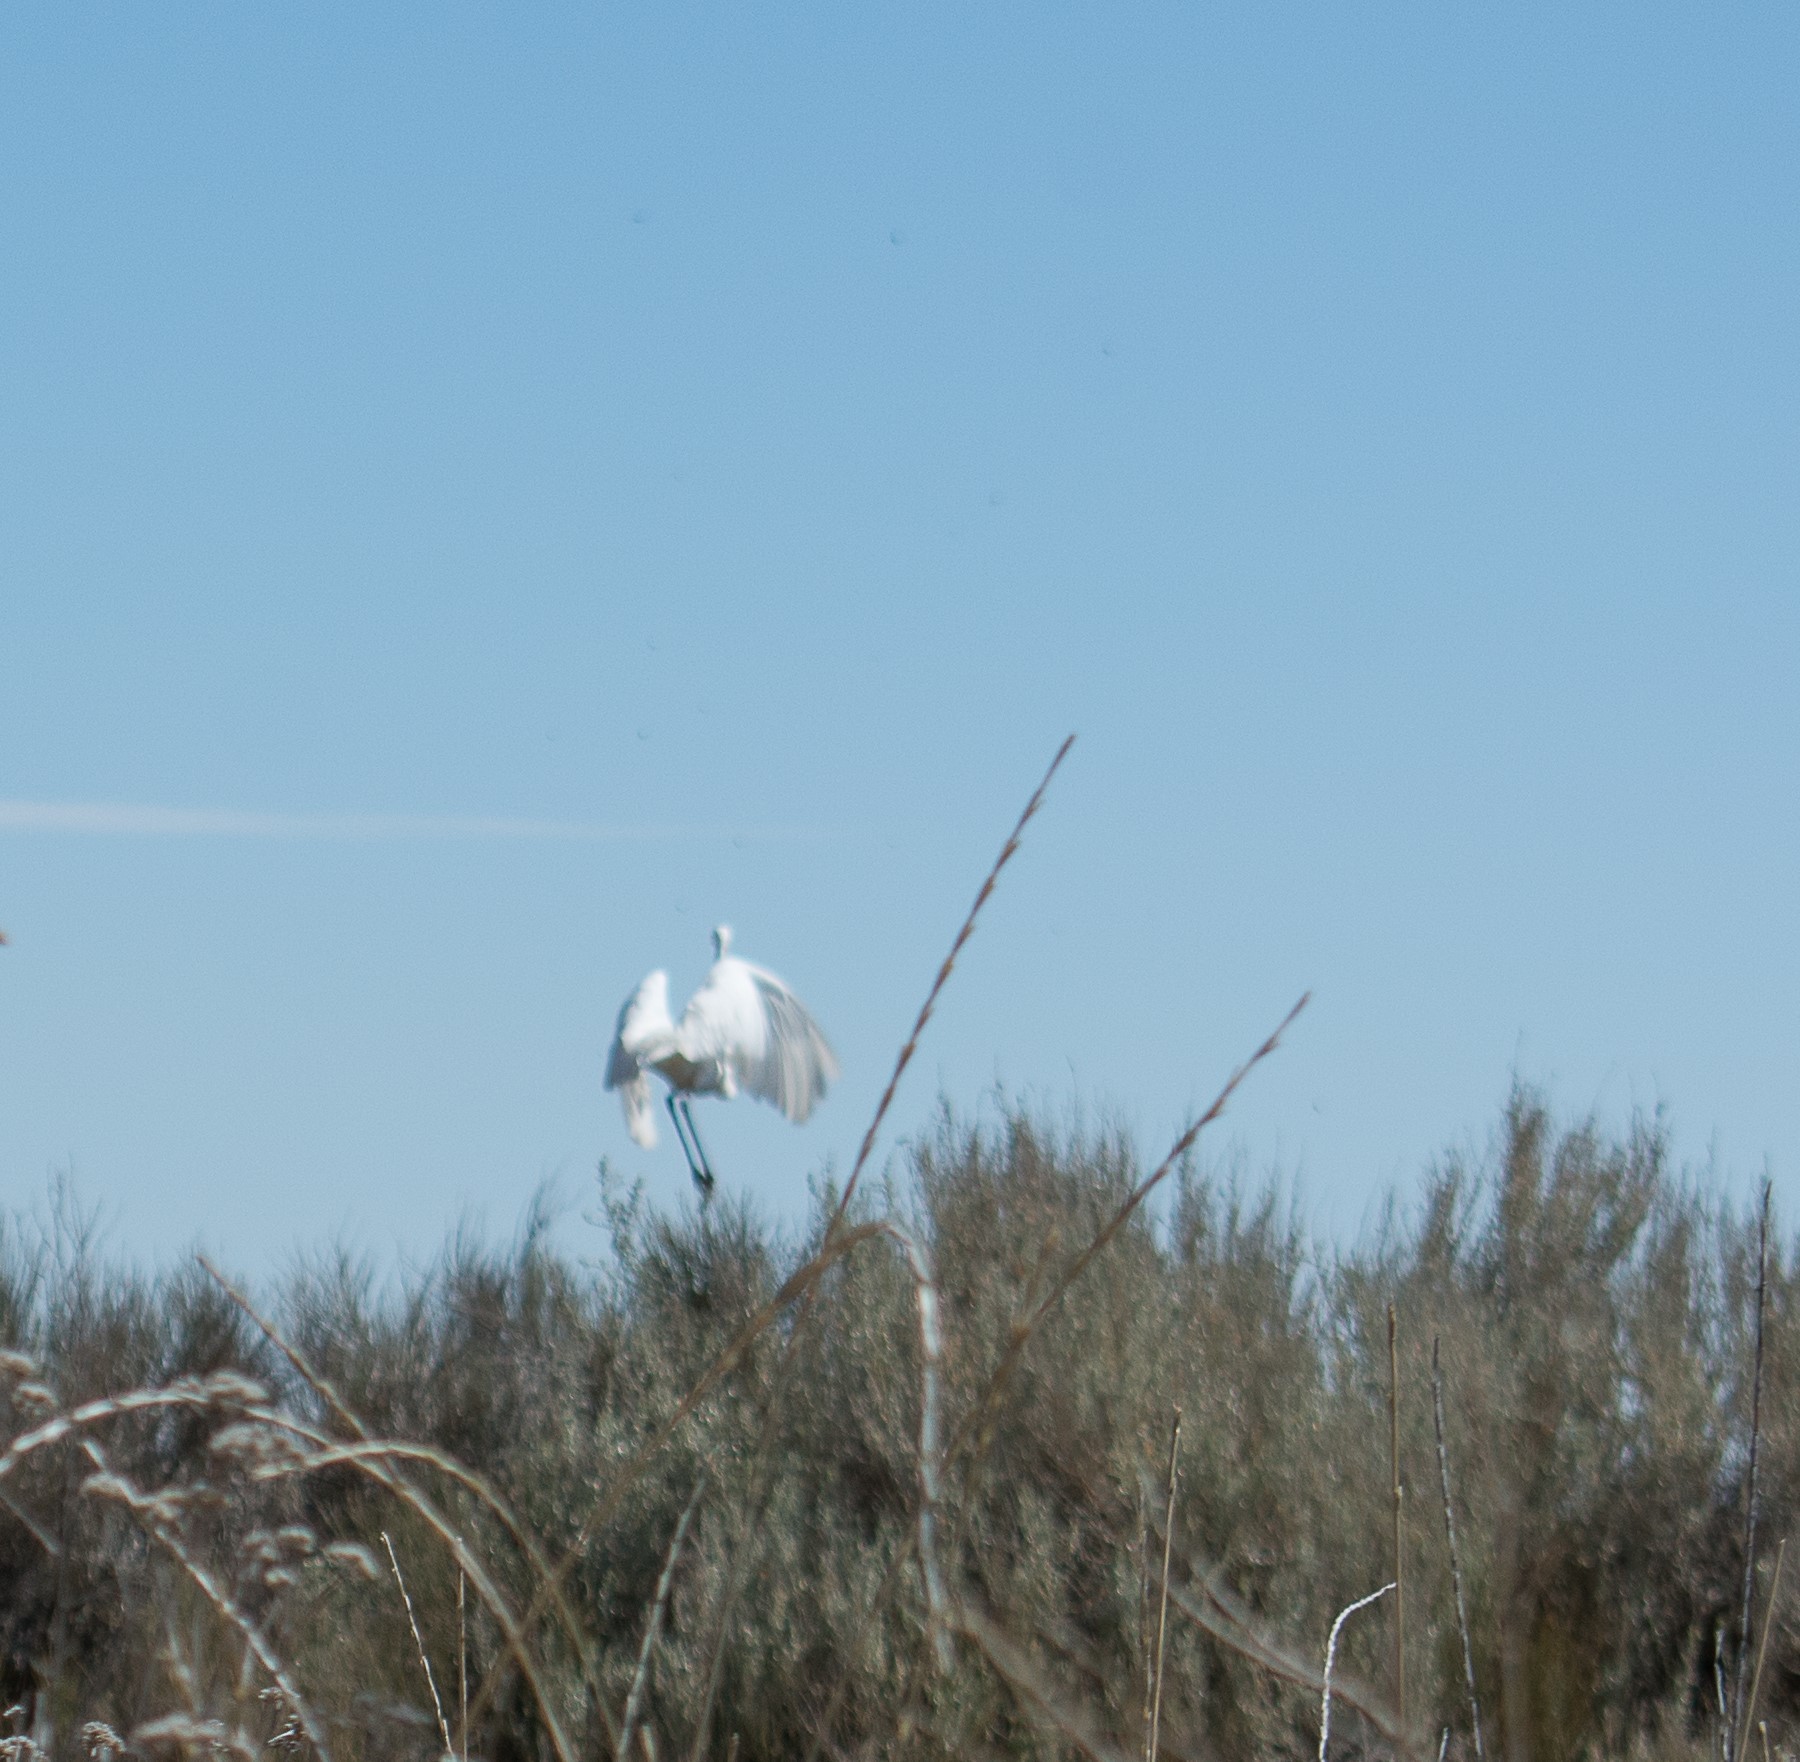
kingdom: Animalia
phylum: Chordata
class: Aves
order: Pelecaniformes
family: Ardeidae
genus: Ardea
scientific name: Ardea alba
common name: Great egret
